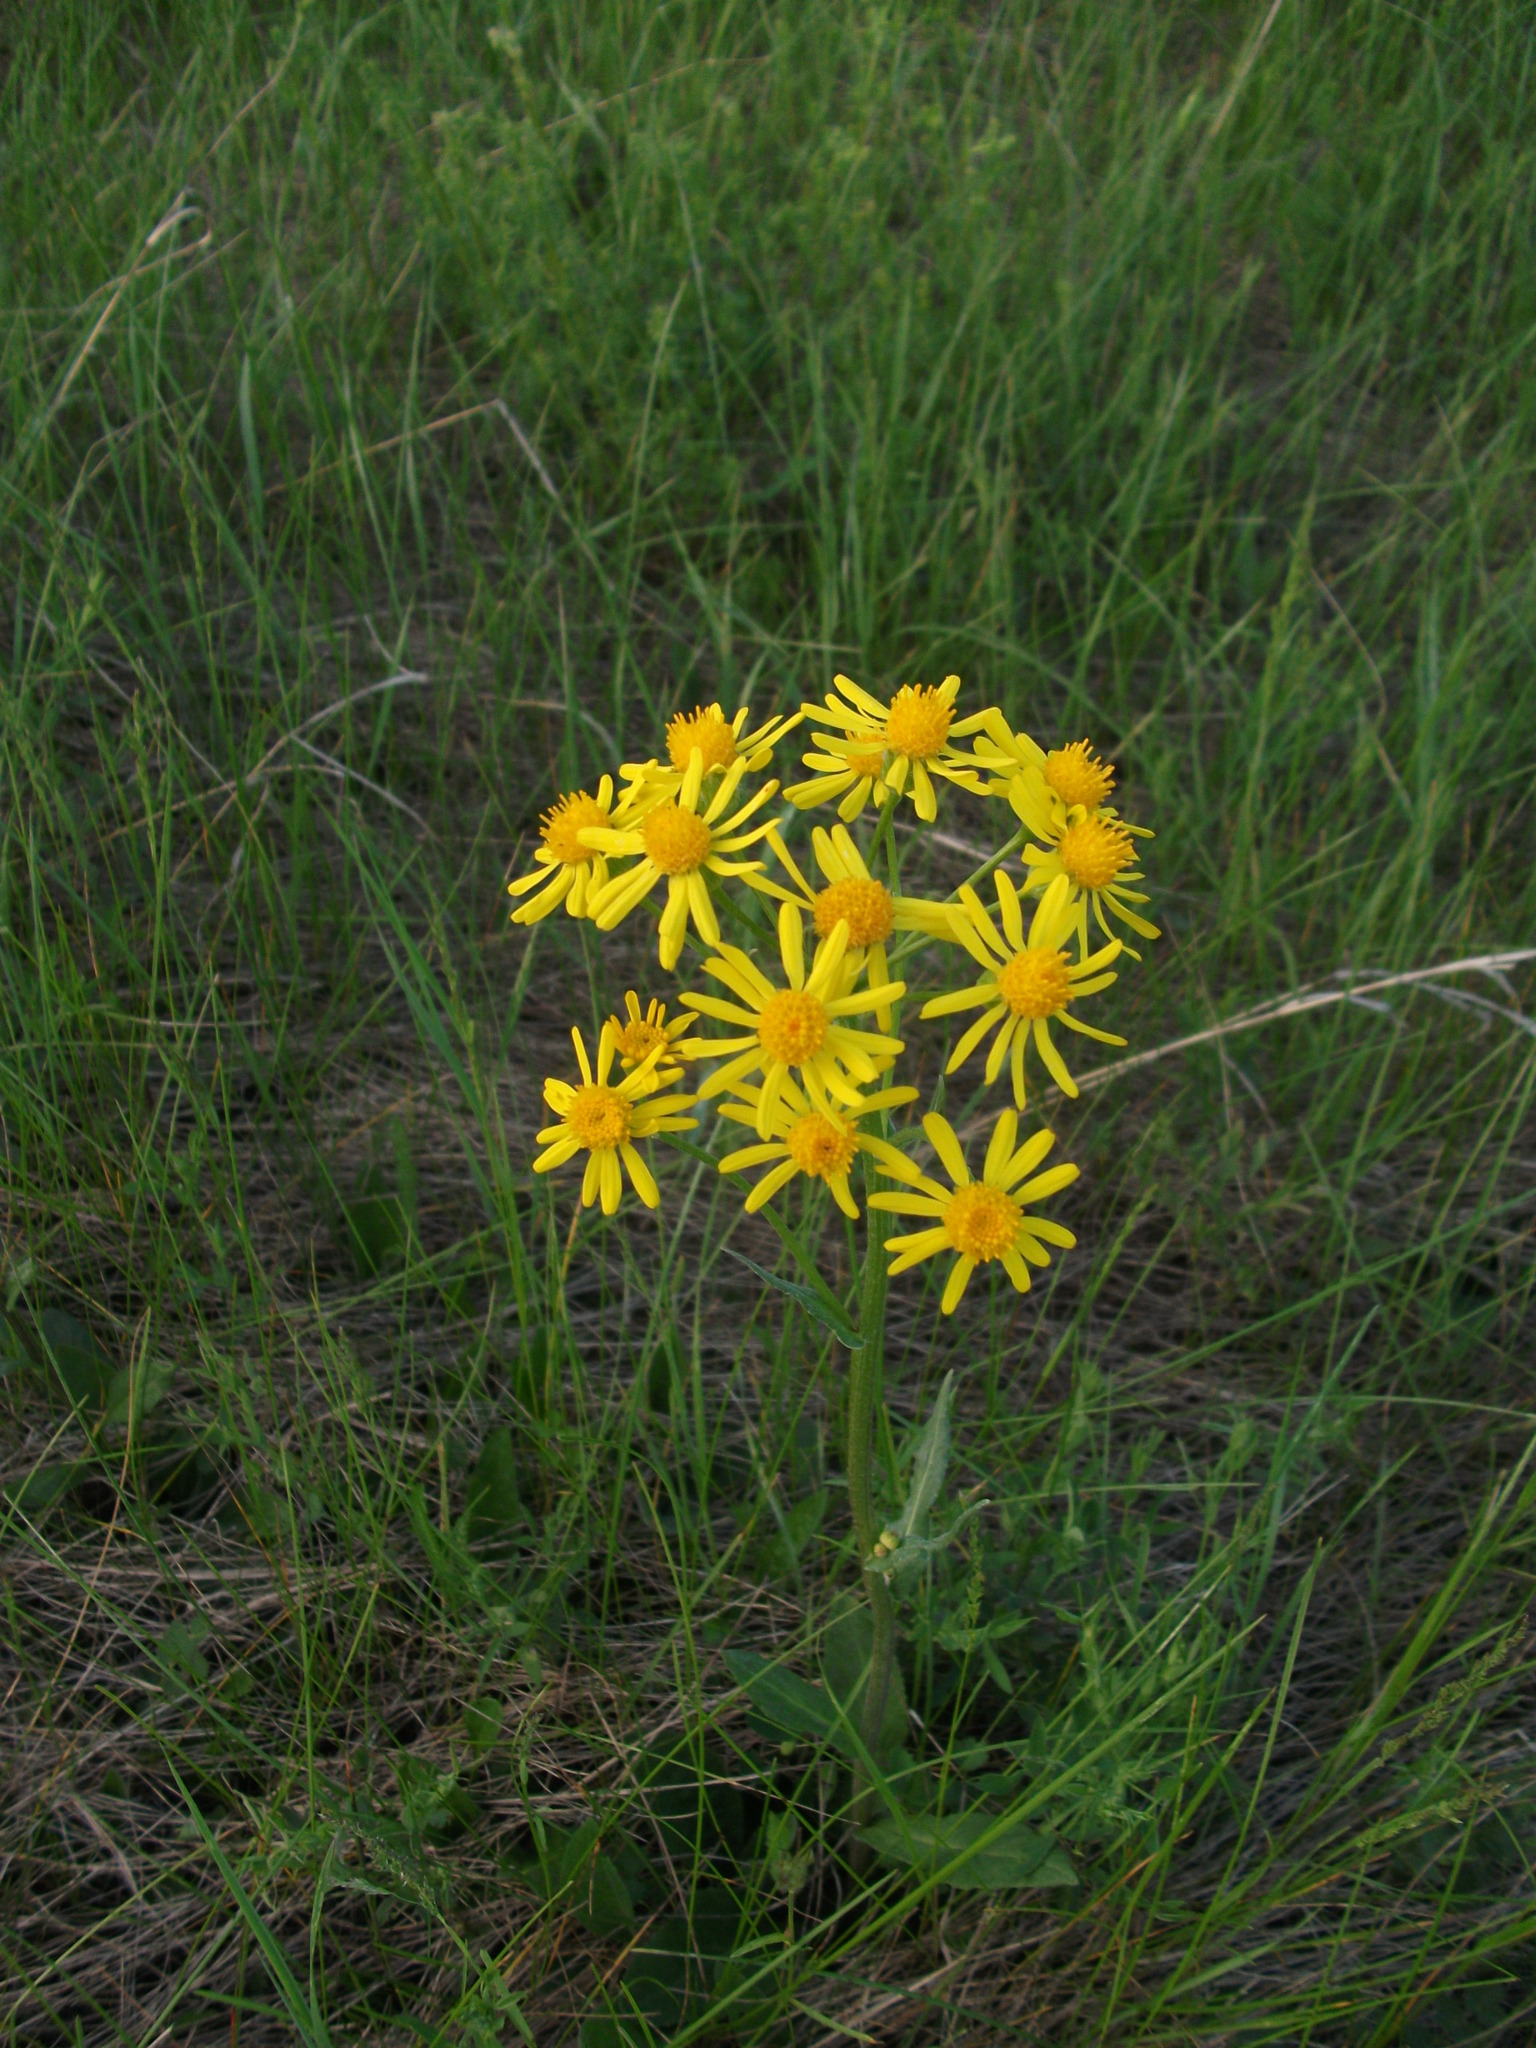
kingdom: Plantae
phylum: Tracheophyta
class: Magnoliopsida
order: Asterales
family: Asteraceae
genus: Tephroseris
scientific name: Tephroseris integrifolia
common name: Field fleawort
